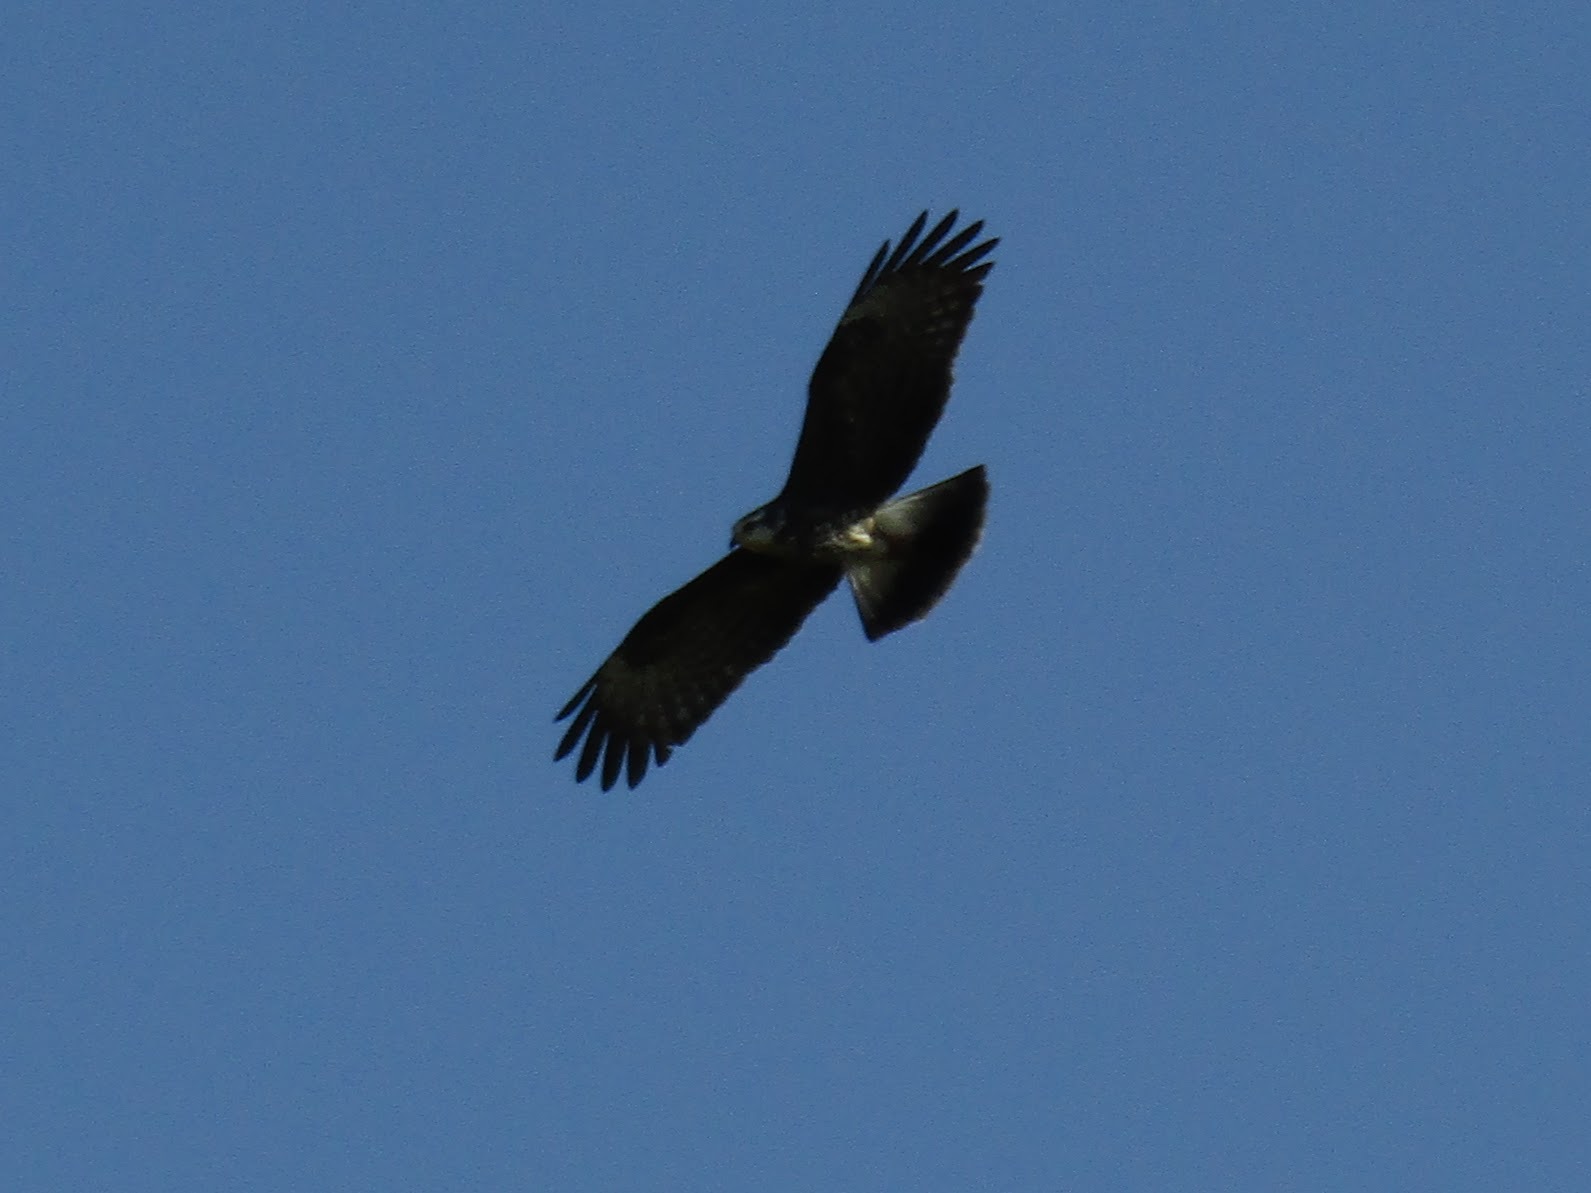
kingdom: Animalia
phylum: Chordata
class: Aves
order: Accipitriformes
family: Accipitridae
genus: Rostrhamus
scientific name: Rostrhamus sociabilis
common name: Snail kite
